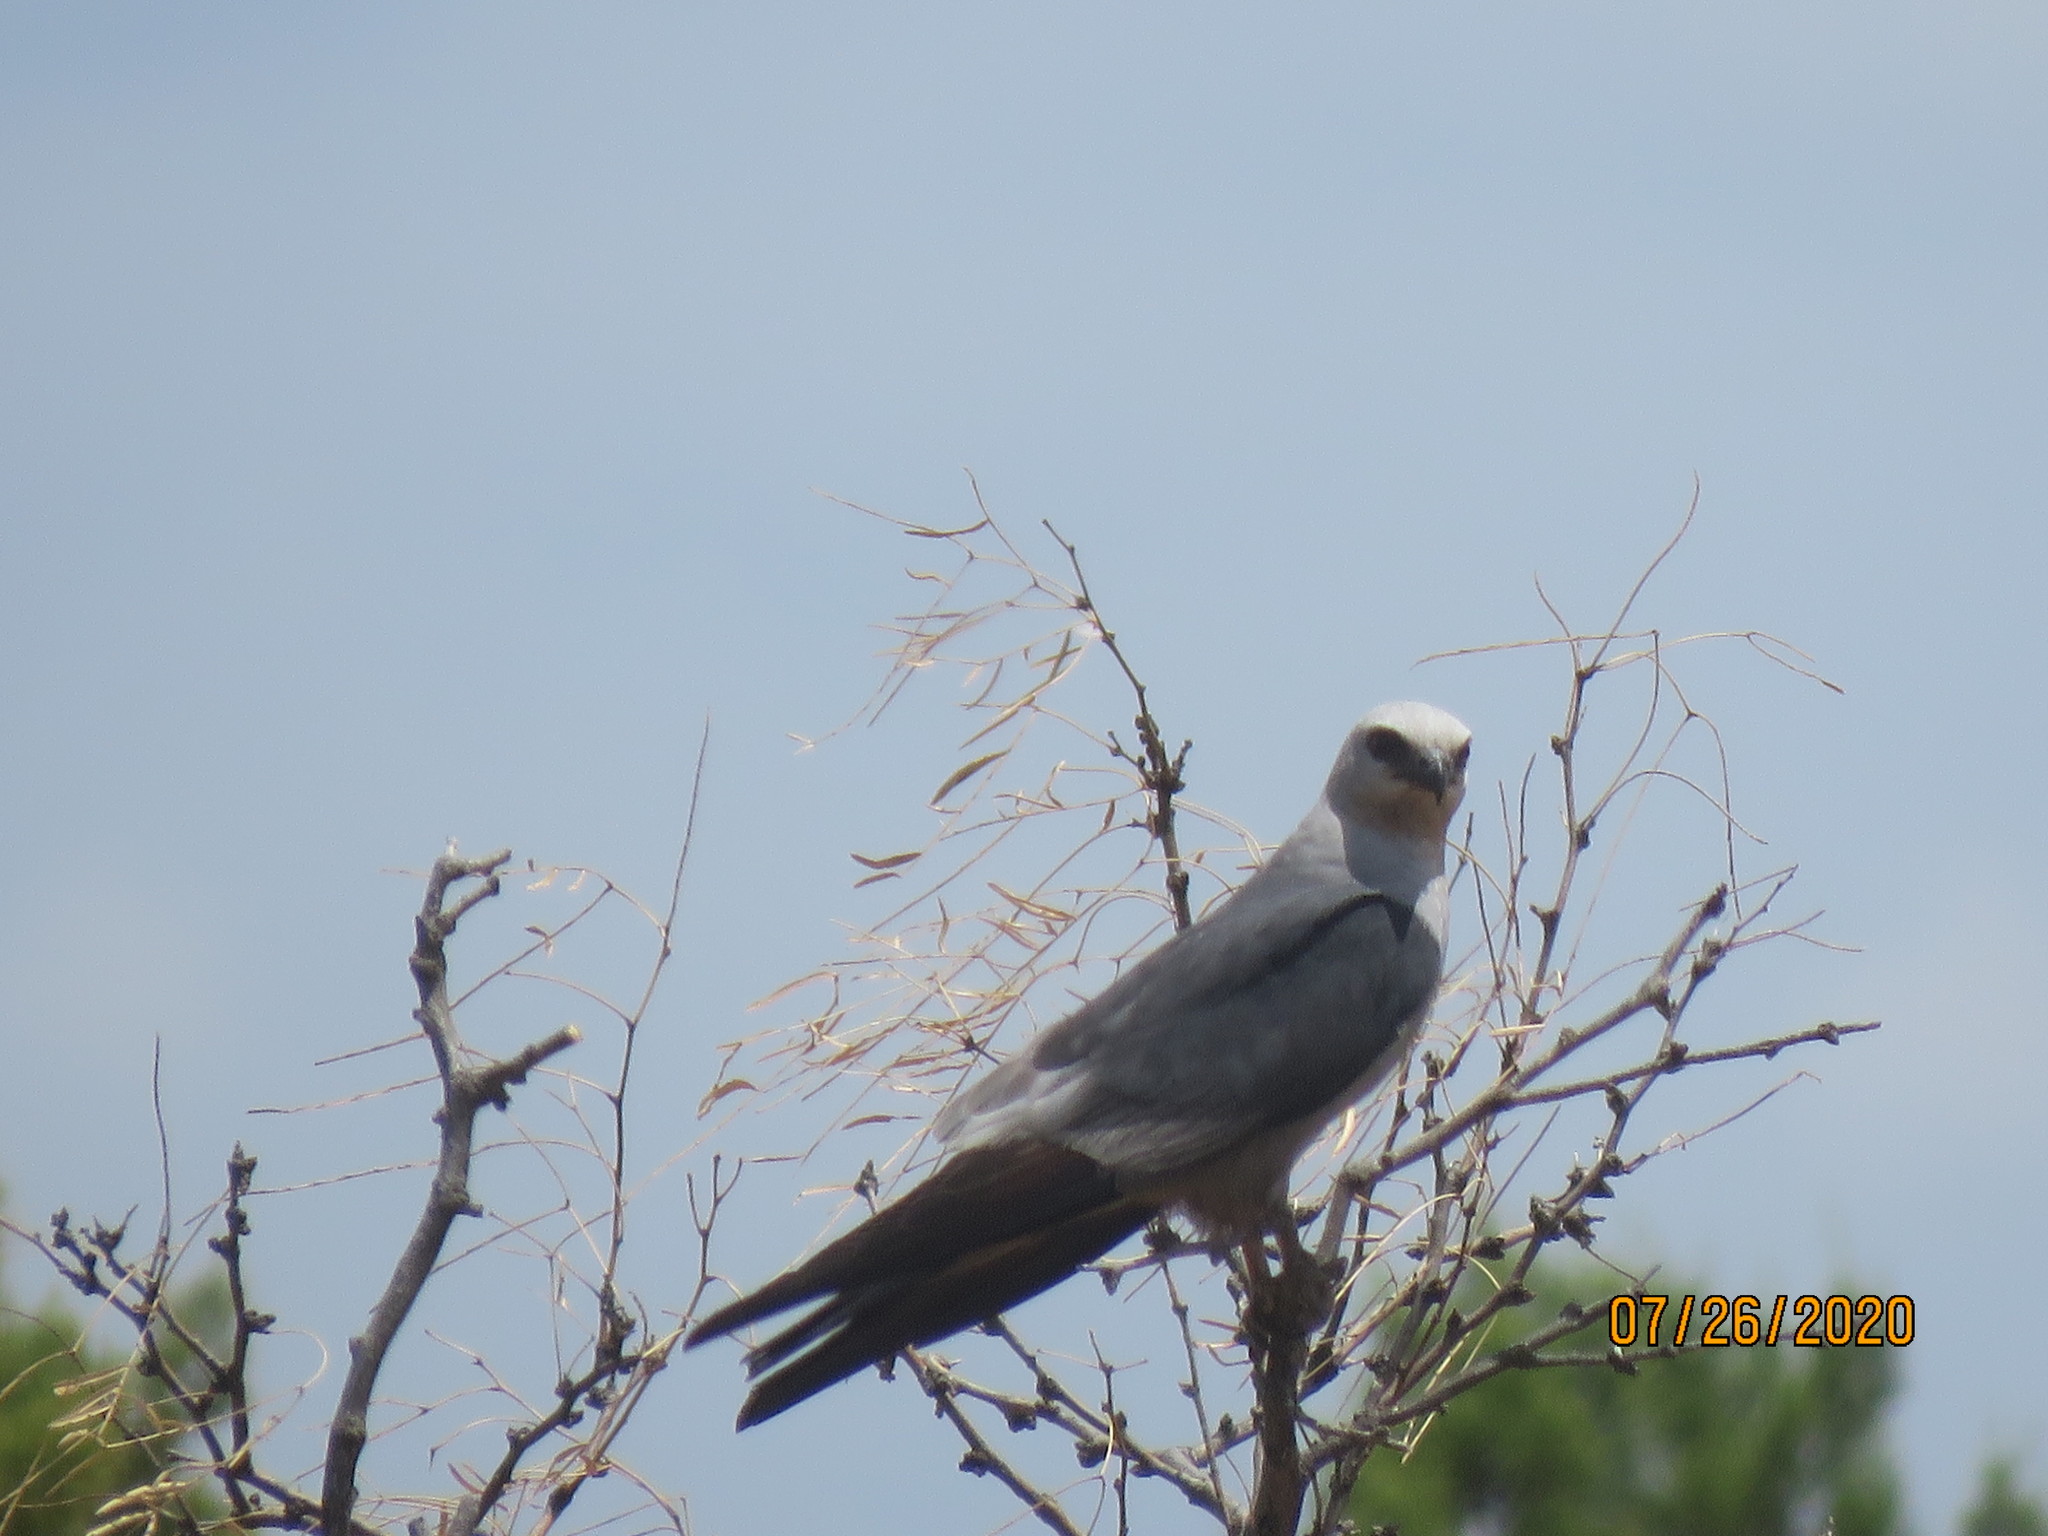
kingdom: Animalia
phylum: Chordata
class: Aves
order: Accipitriformes
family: Accipitridae
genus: Ictinia
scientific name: Ictinia mississippiensis
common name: Mississippi kite
